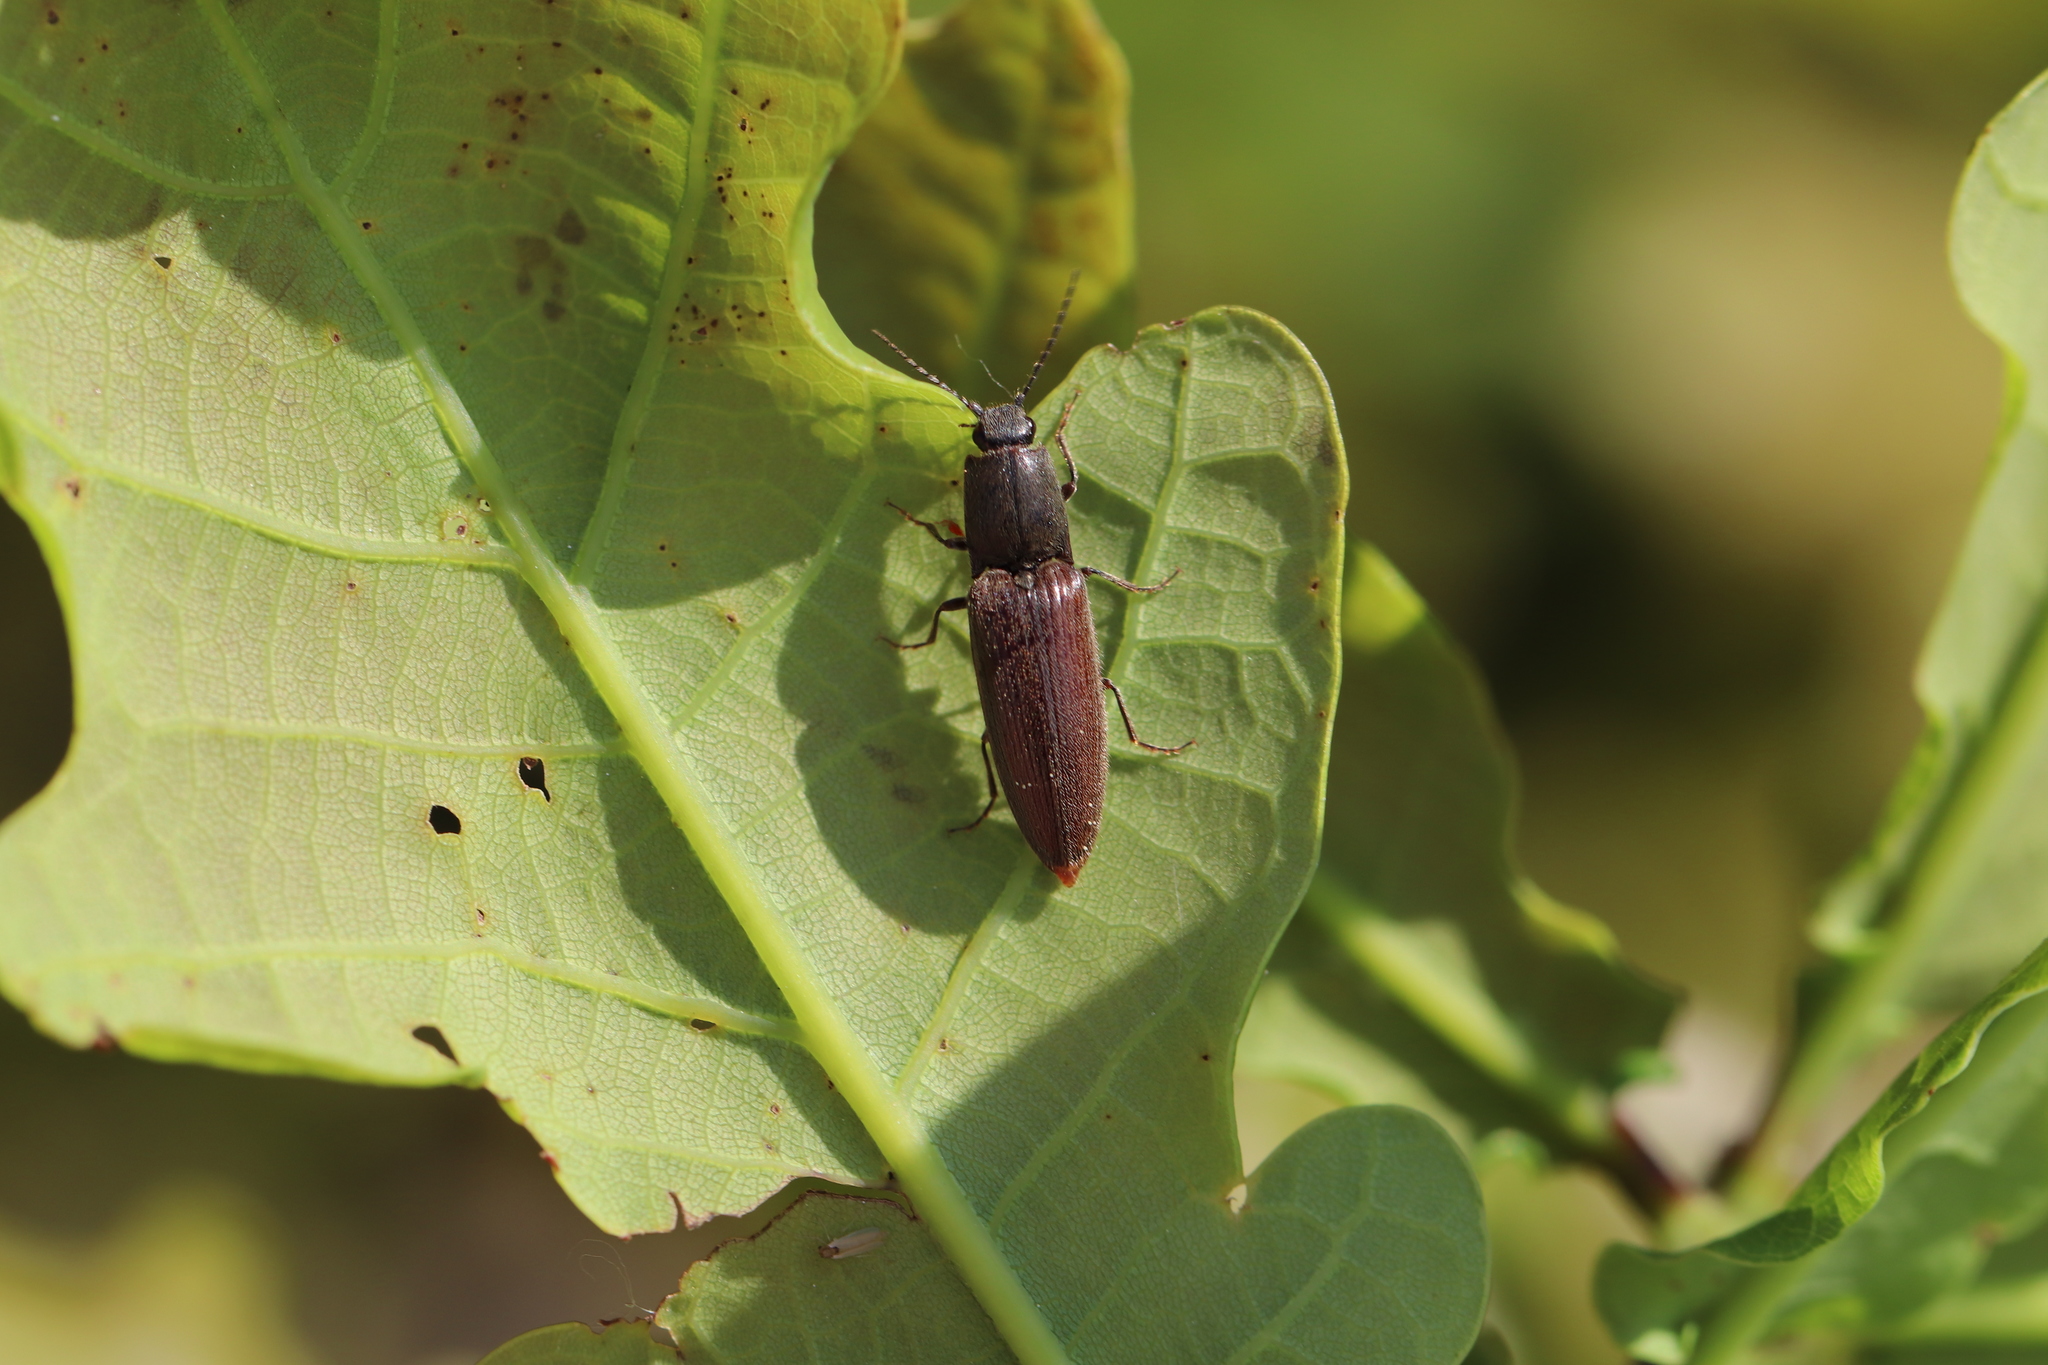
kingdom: Animalia
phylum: Arthropoda
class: Insecta
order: Coleoptera
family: Elateridae
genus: Athous
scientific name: Athous haemorrhoidalis
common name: Red-brown click beetle
